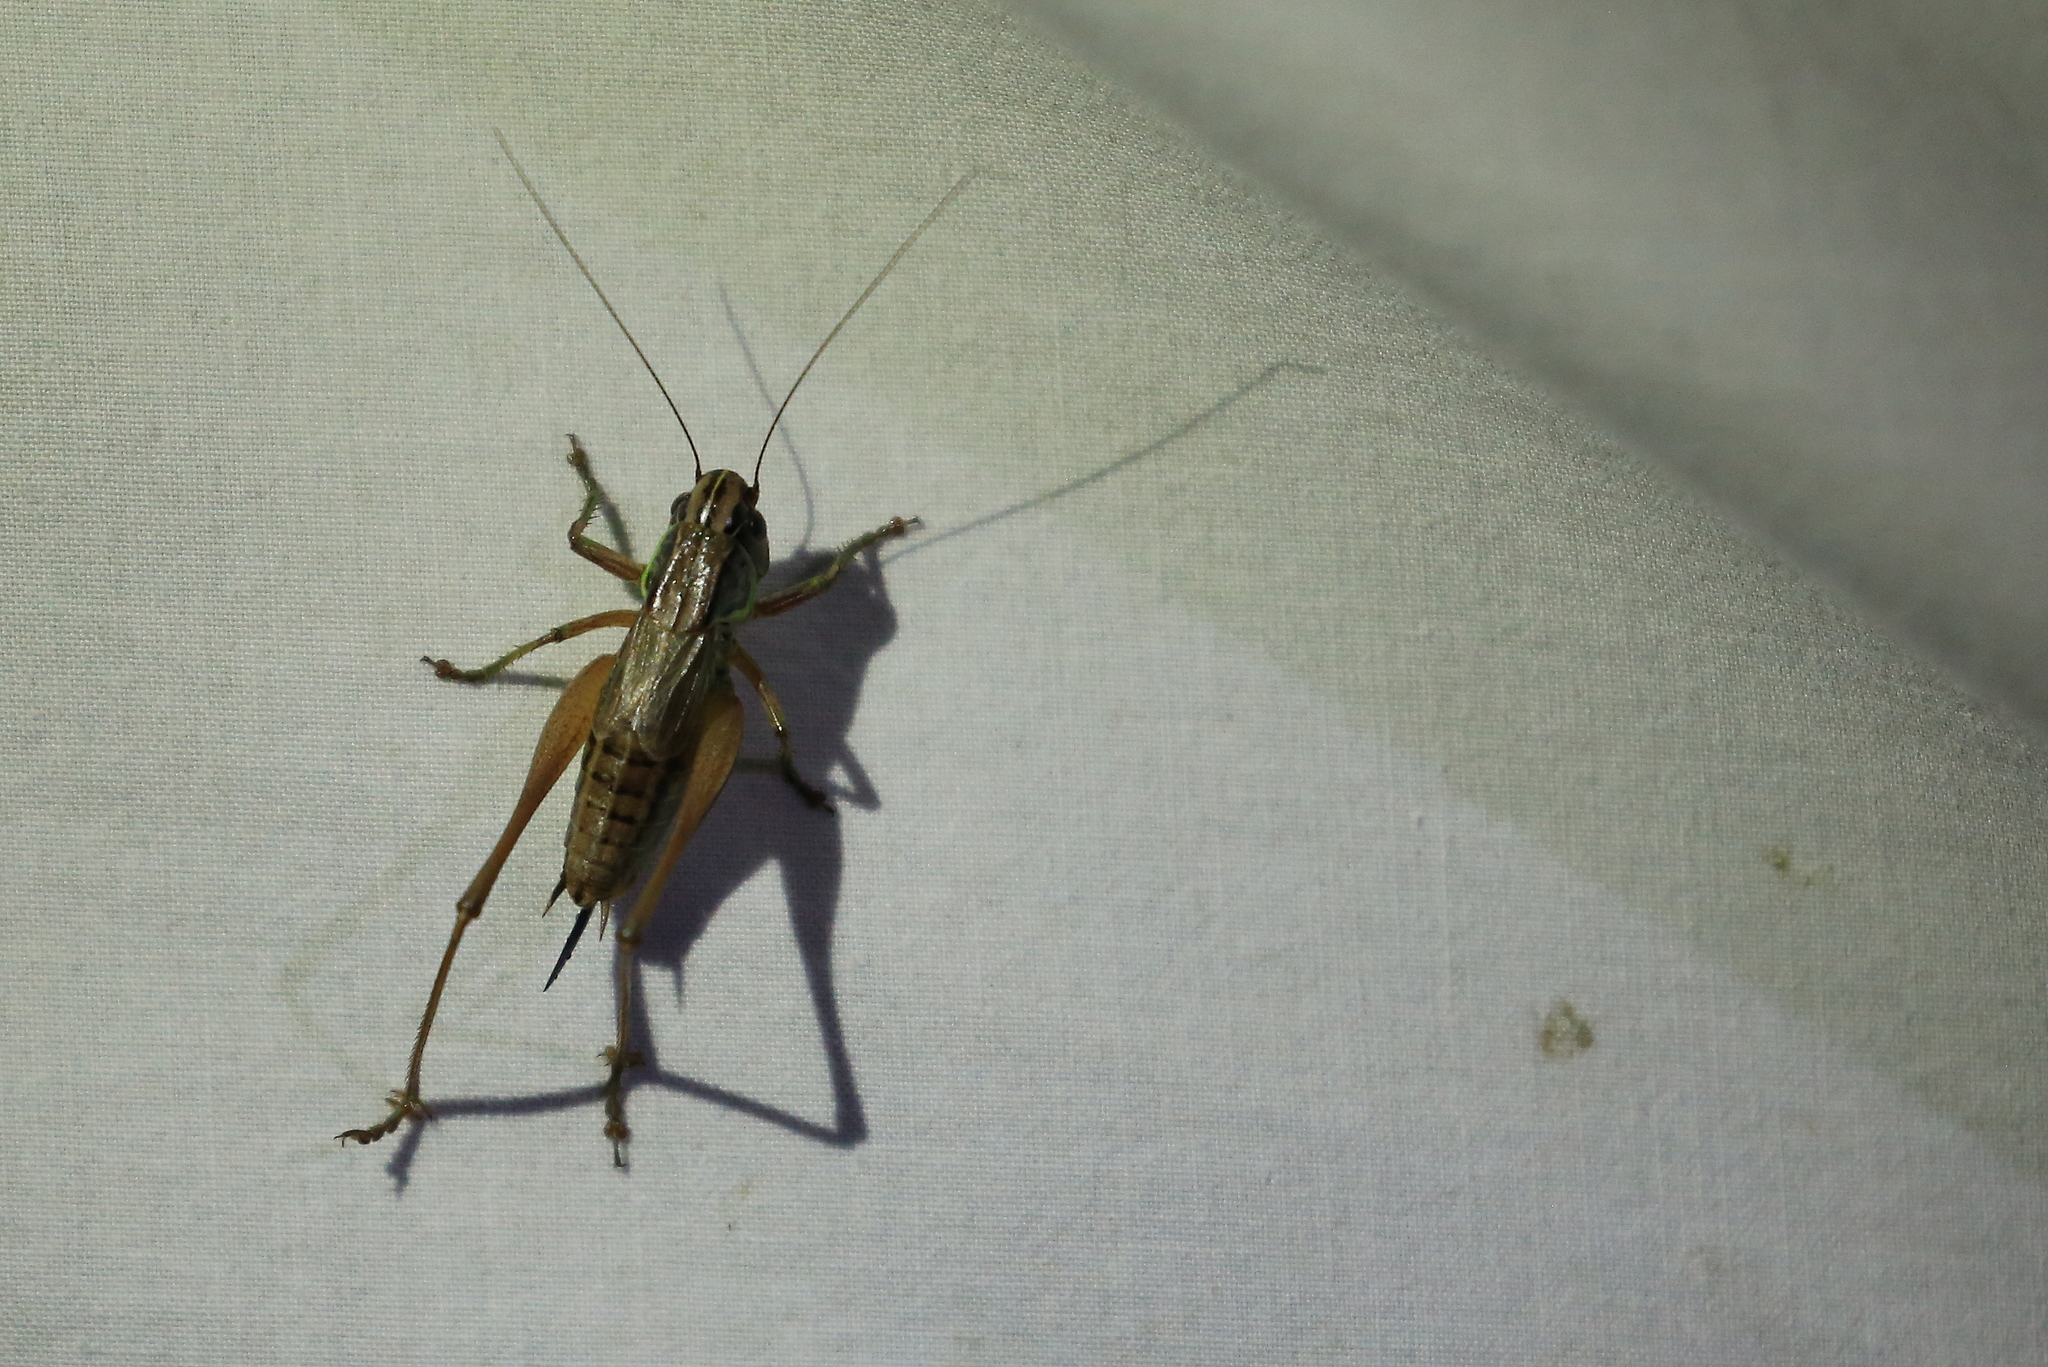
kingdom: Animalia
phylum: Arthropoda
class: Insecta
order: Orthoptera
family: Tettigoniidae
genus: Roeseliana
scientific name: Roeseliana roeselii
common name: Roesel's bush cricket
